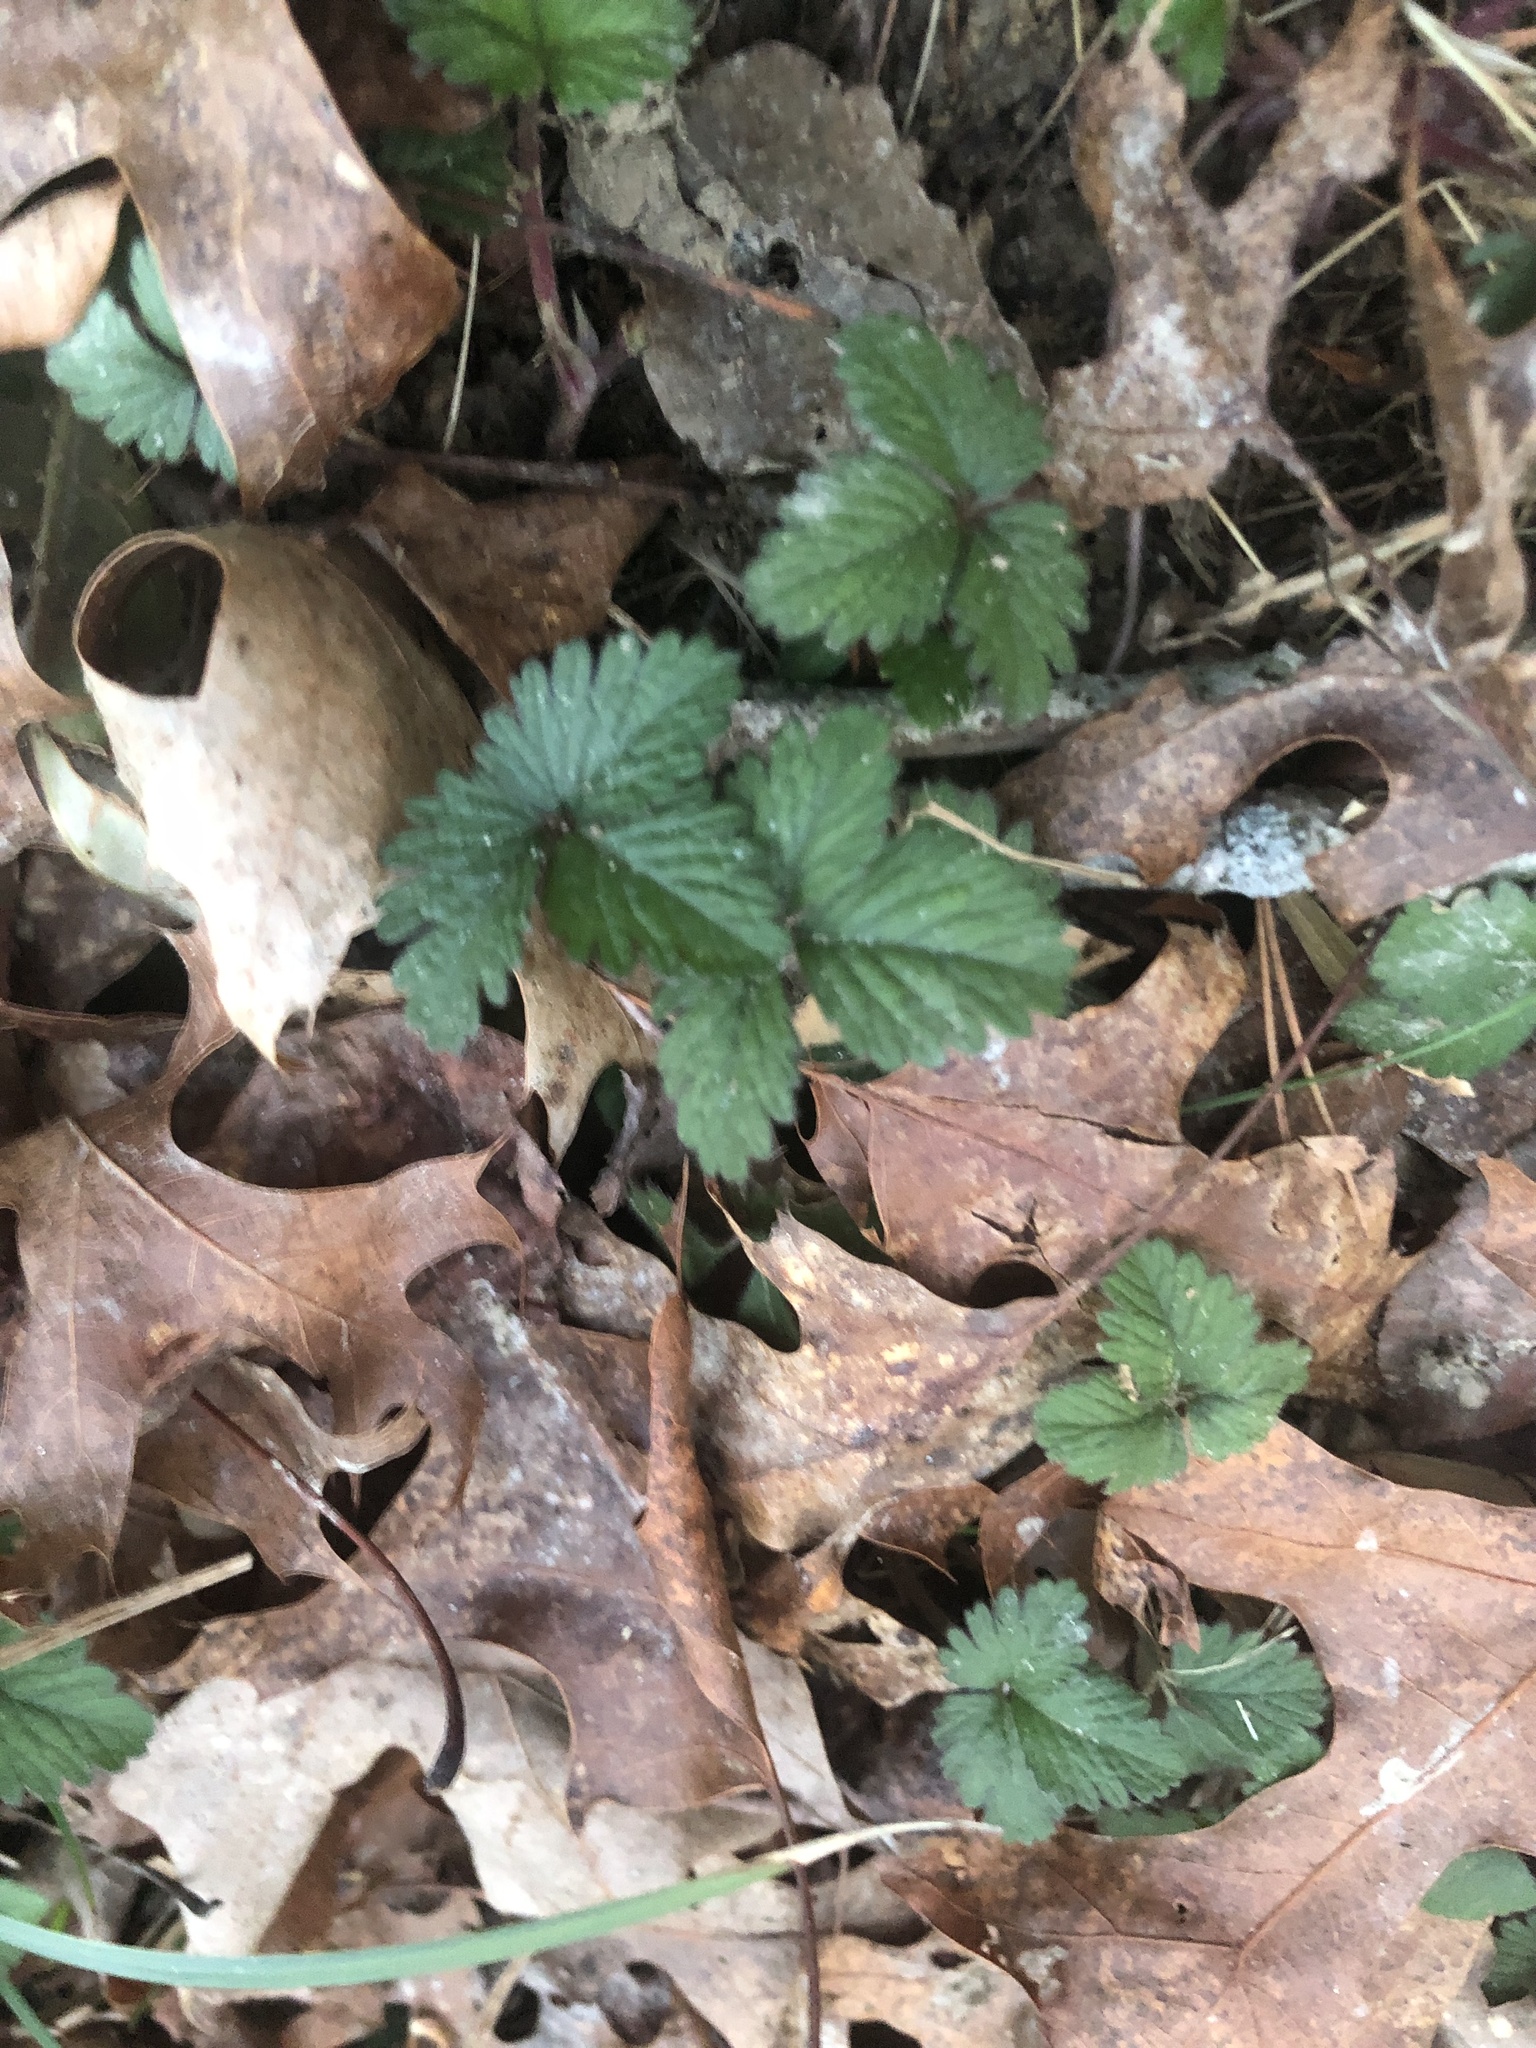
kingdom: Plantae
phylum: Tracheophyta
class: Magnoliopsida
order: Rosales
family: Rosaceae
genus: Potentilla
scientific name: Potentilla indica
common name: Yellow-flowered strawberry
